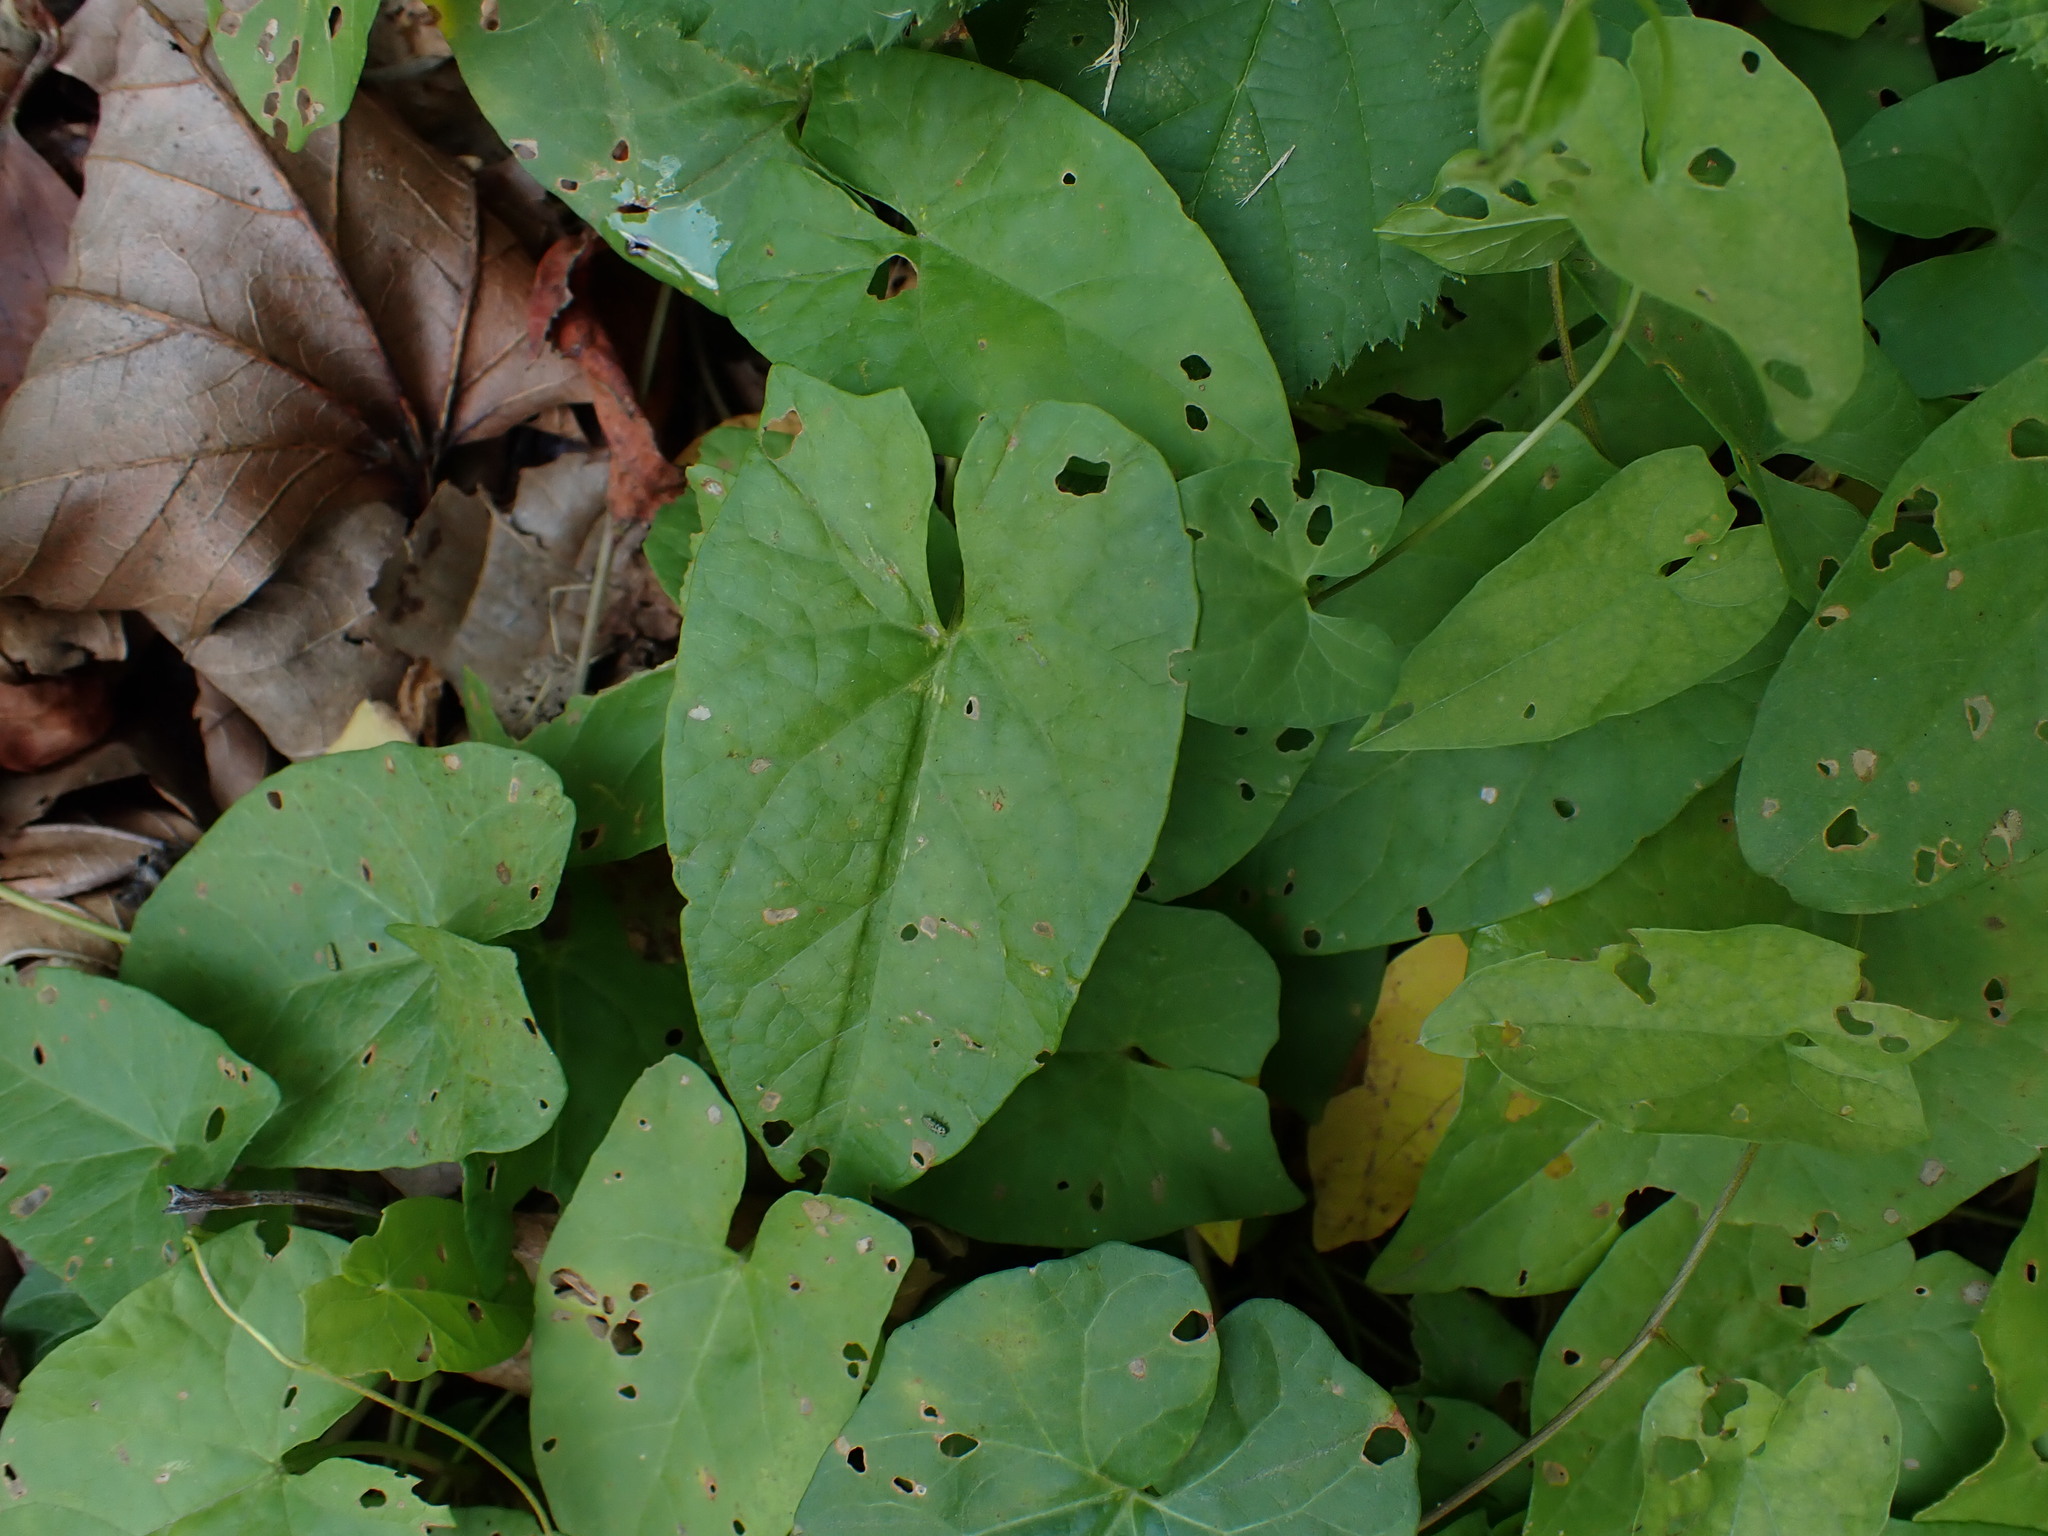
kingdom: Plantae
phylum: Tracheophyta
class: Magnoliopsida
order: Solanales
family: Convolvulaceae
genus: Calystegia
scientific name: Calystegia sepium
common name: Hedge bindweed
